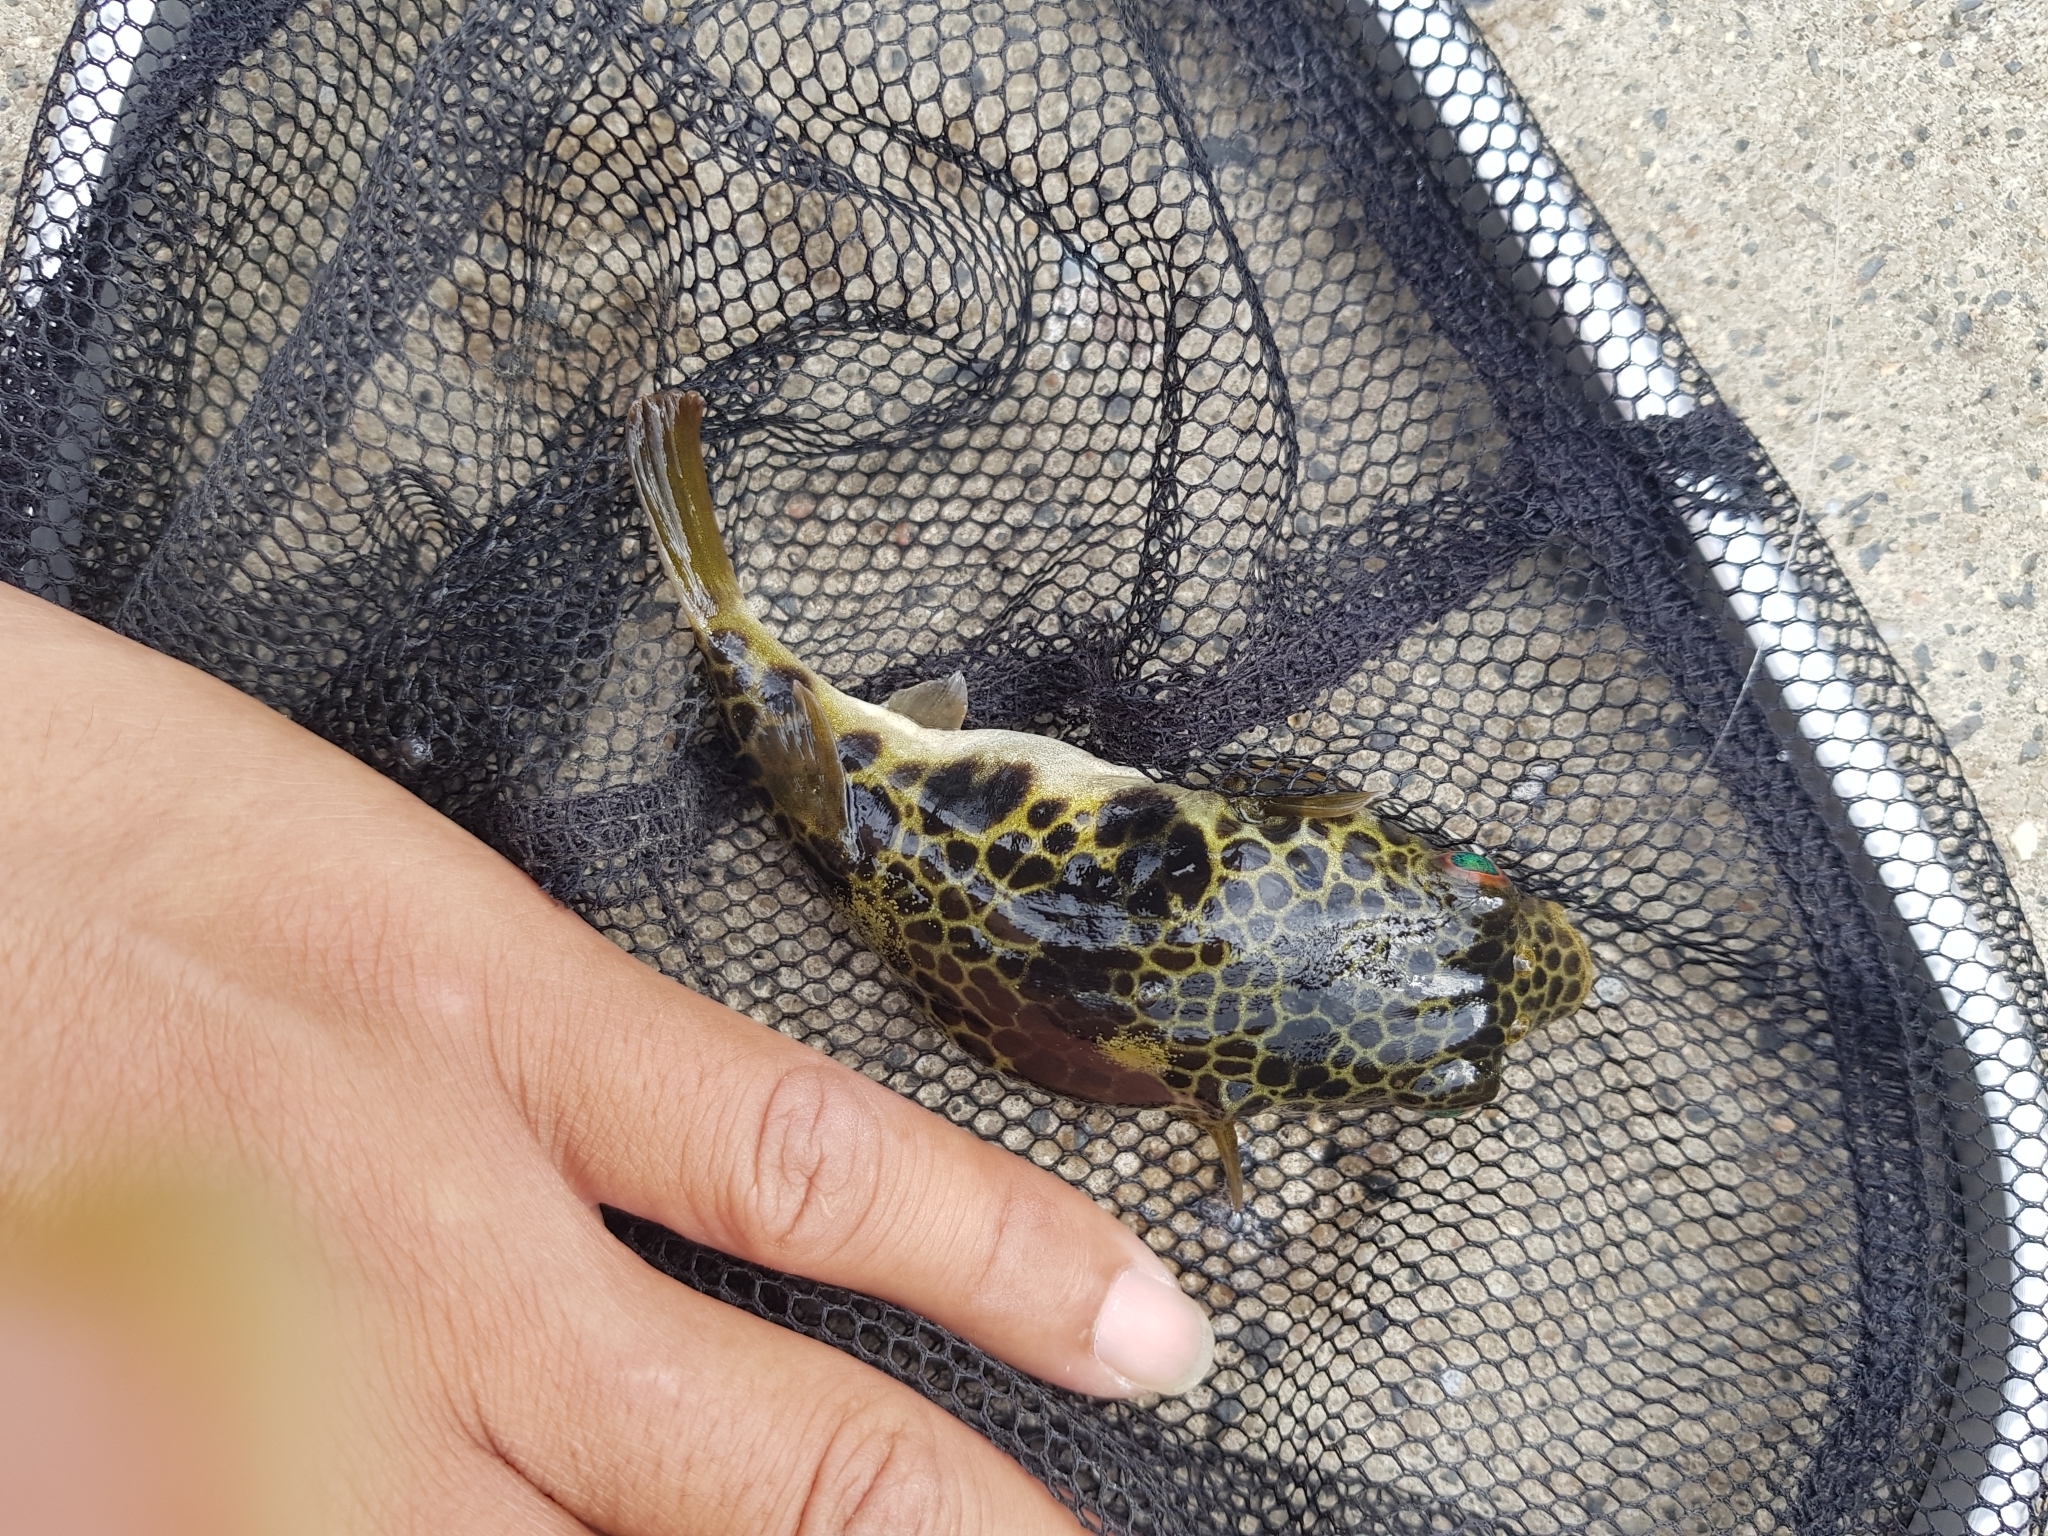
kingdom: Animalia
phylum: Chordata
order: Tetraodontiformes
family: Tetraodontidae
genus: Tetractenos
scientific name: Tetractenos glaber
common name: Smooth toadfish
